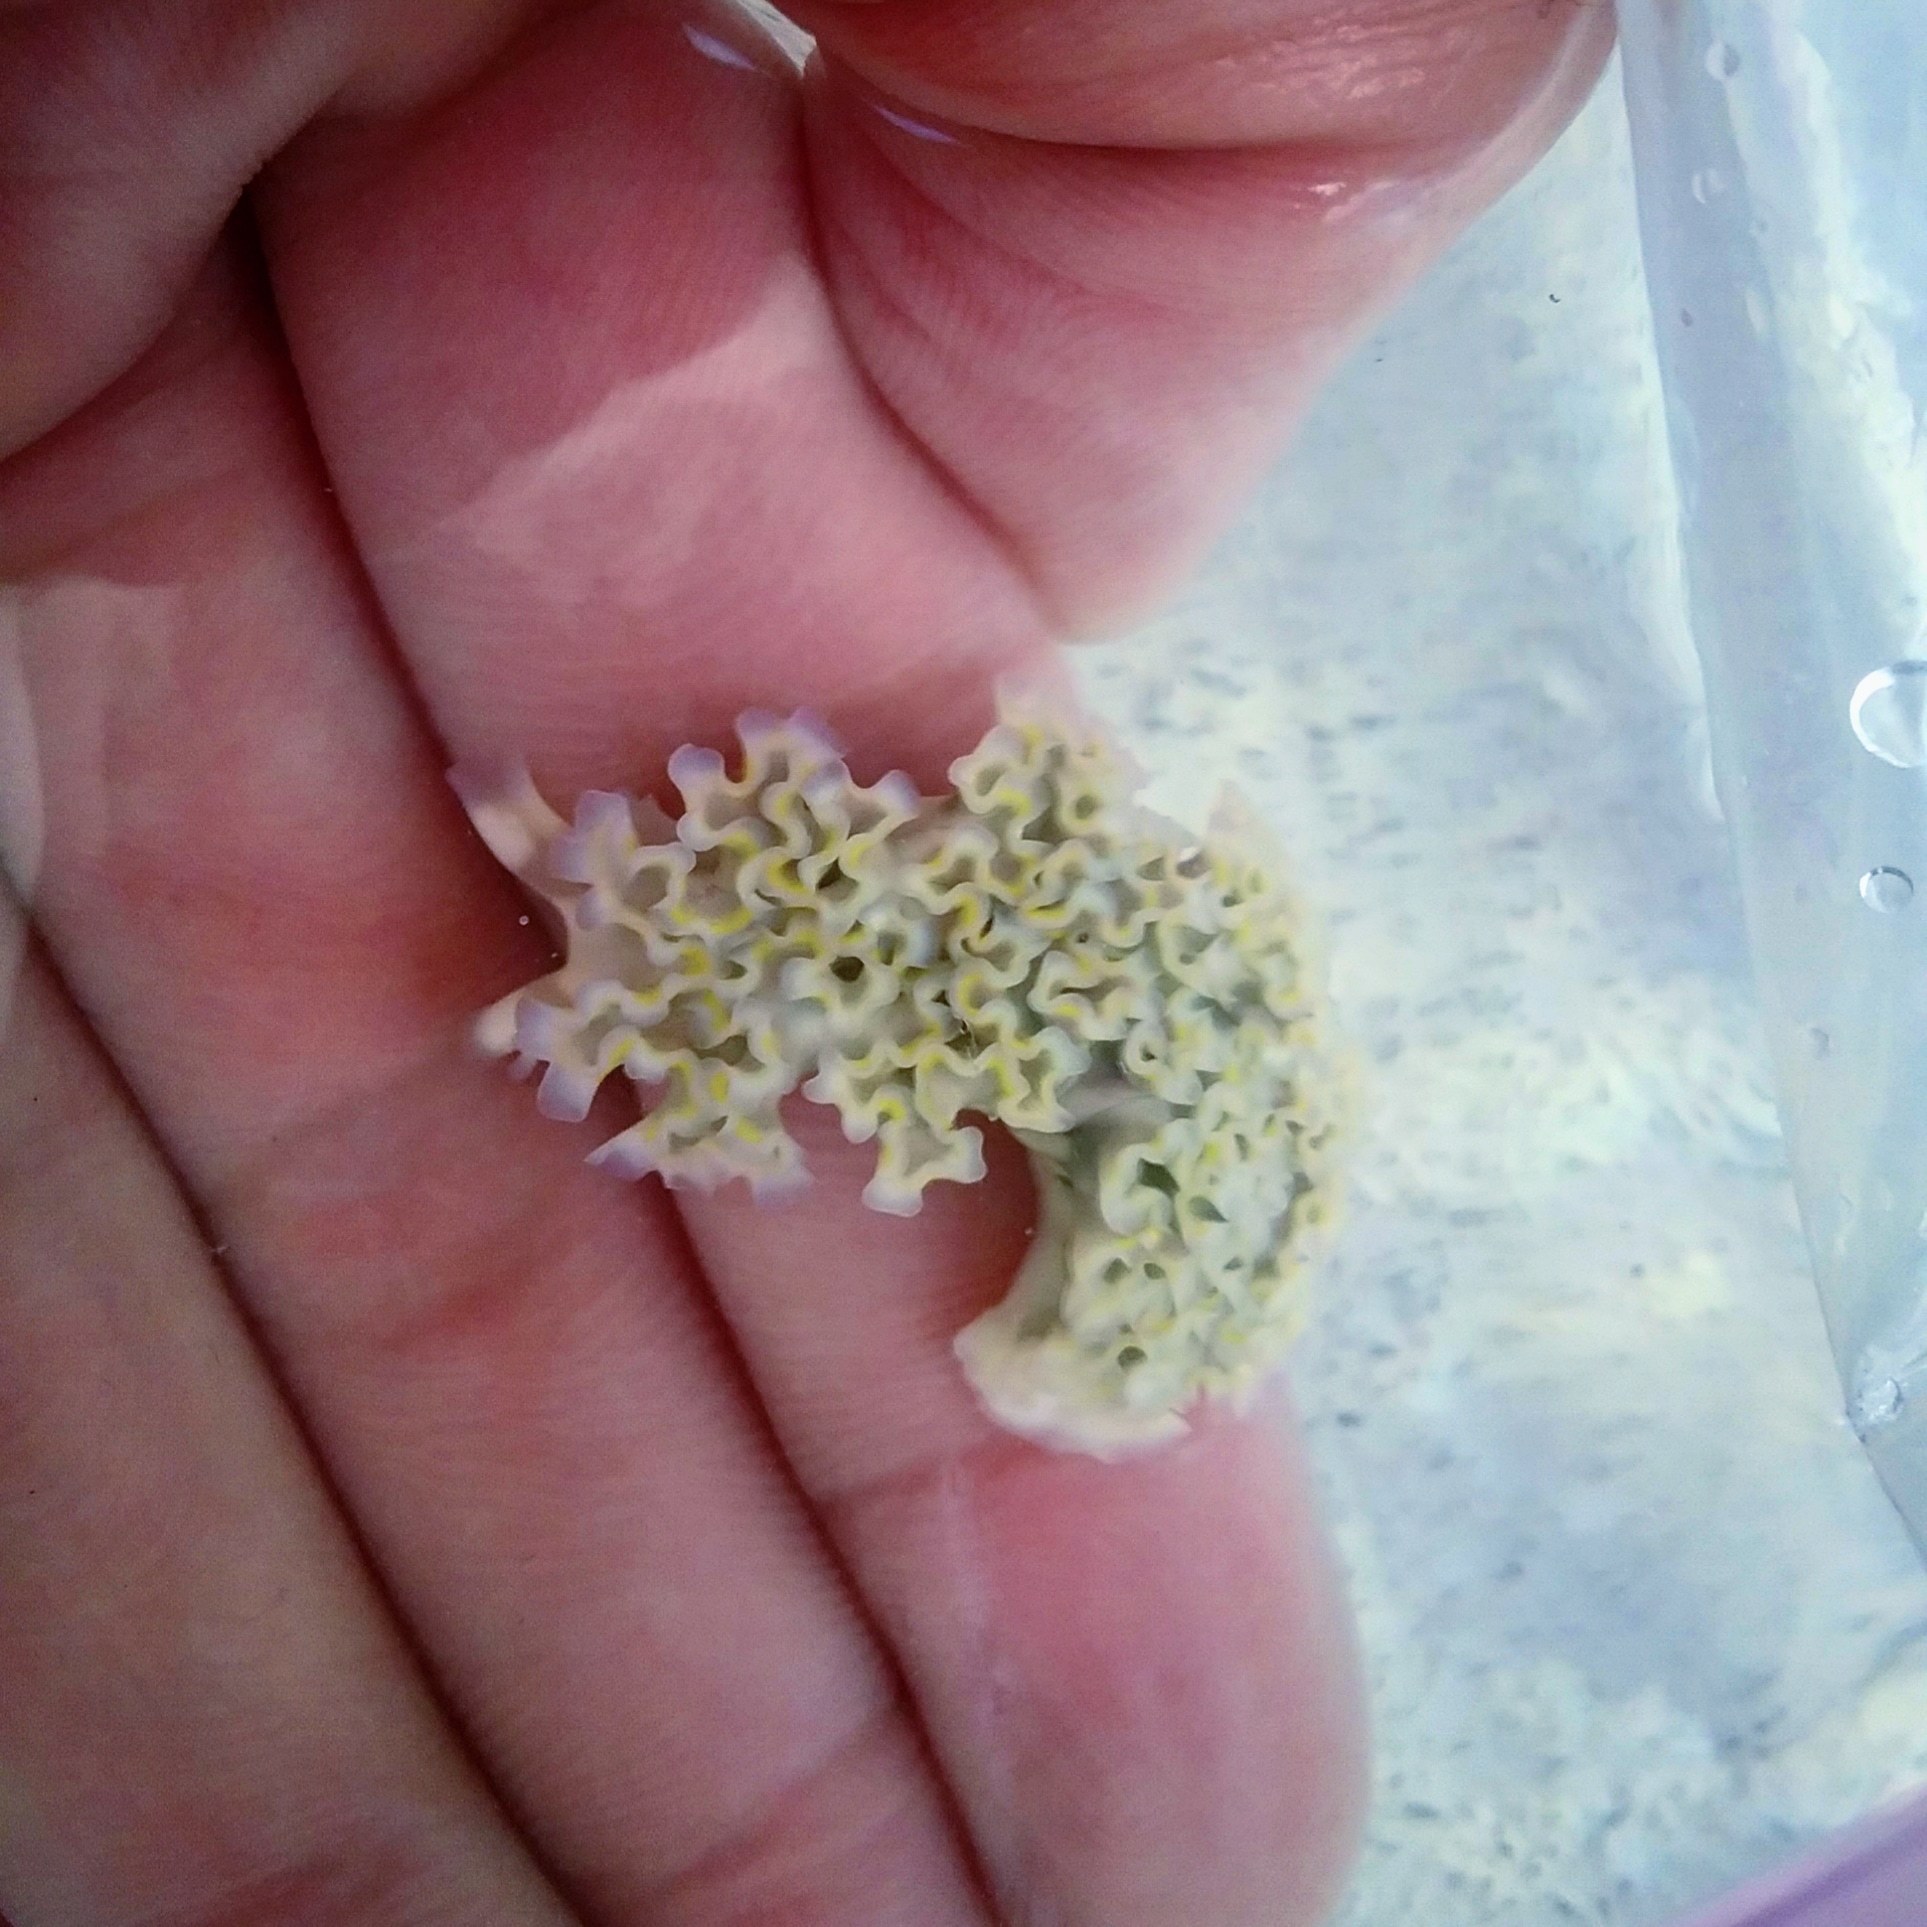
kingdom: Animalia
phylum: Mollusca
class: Gastropoda
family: Plakobranchidae
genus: Elysia
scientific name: Elysia crispata
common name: Lettuce slug
